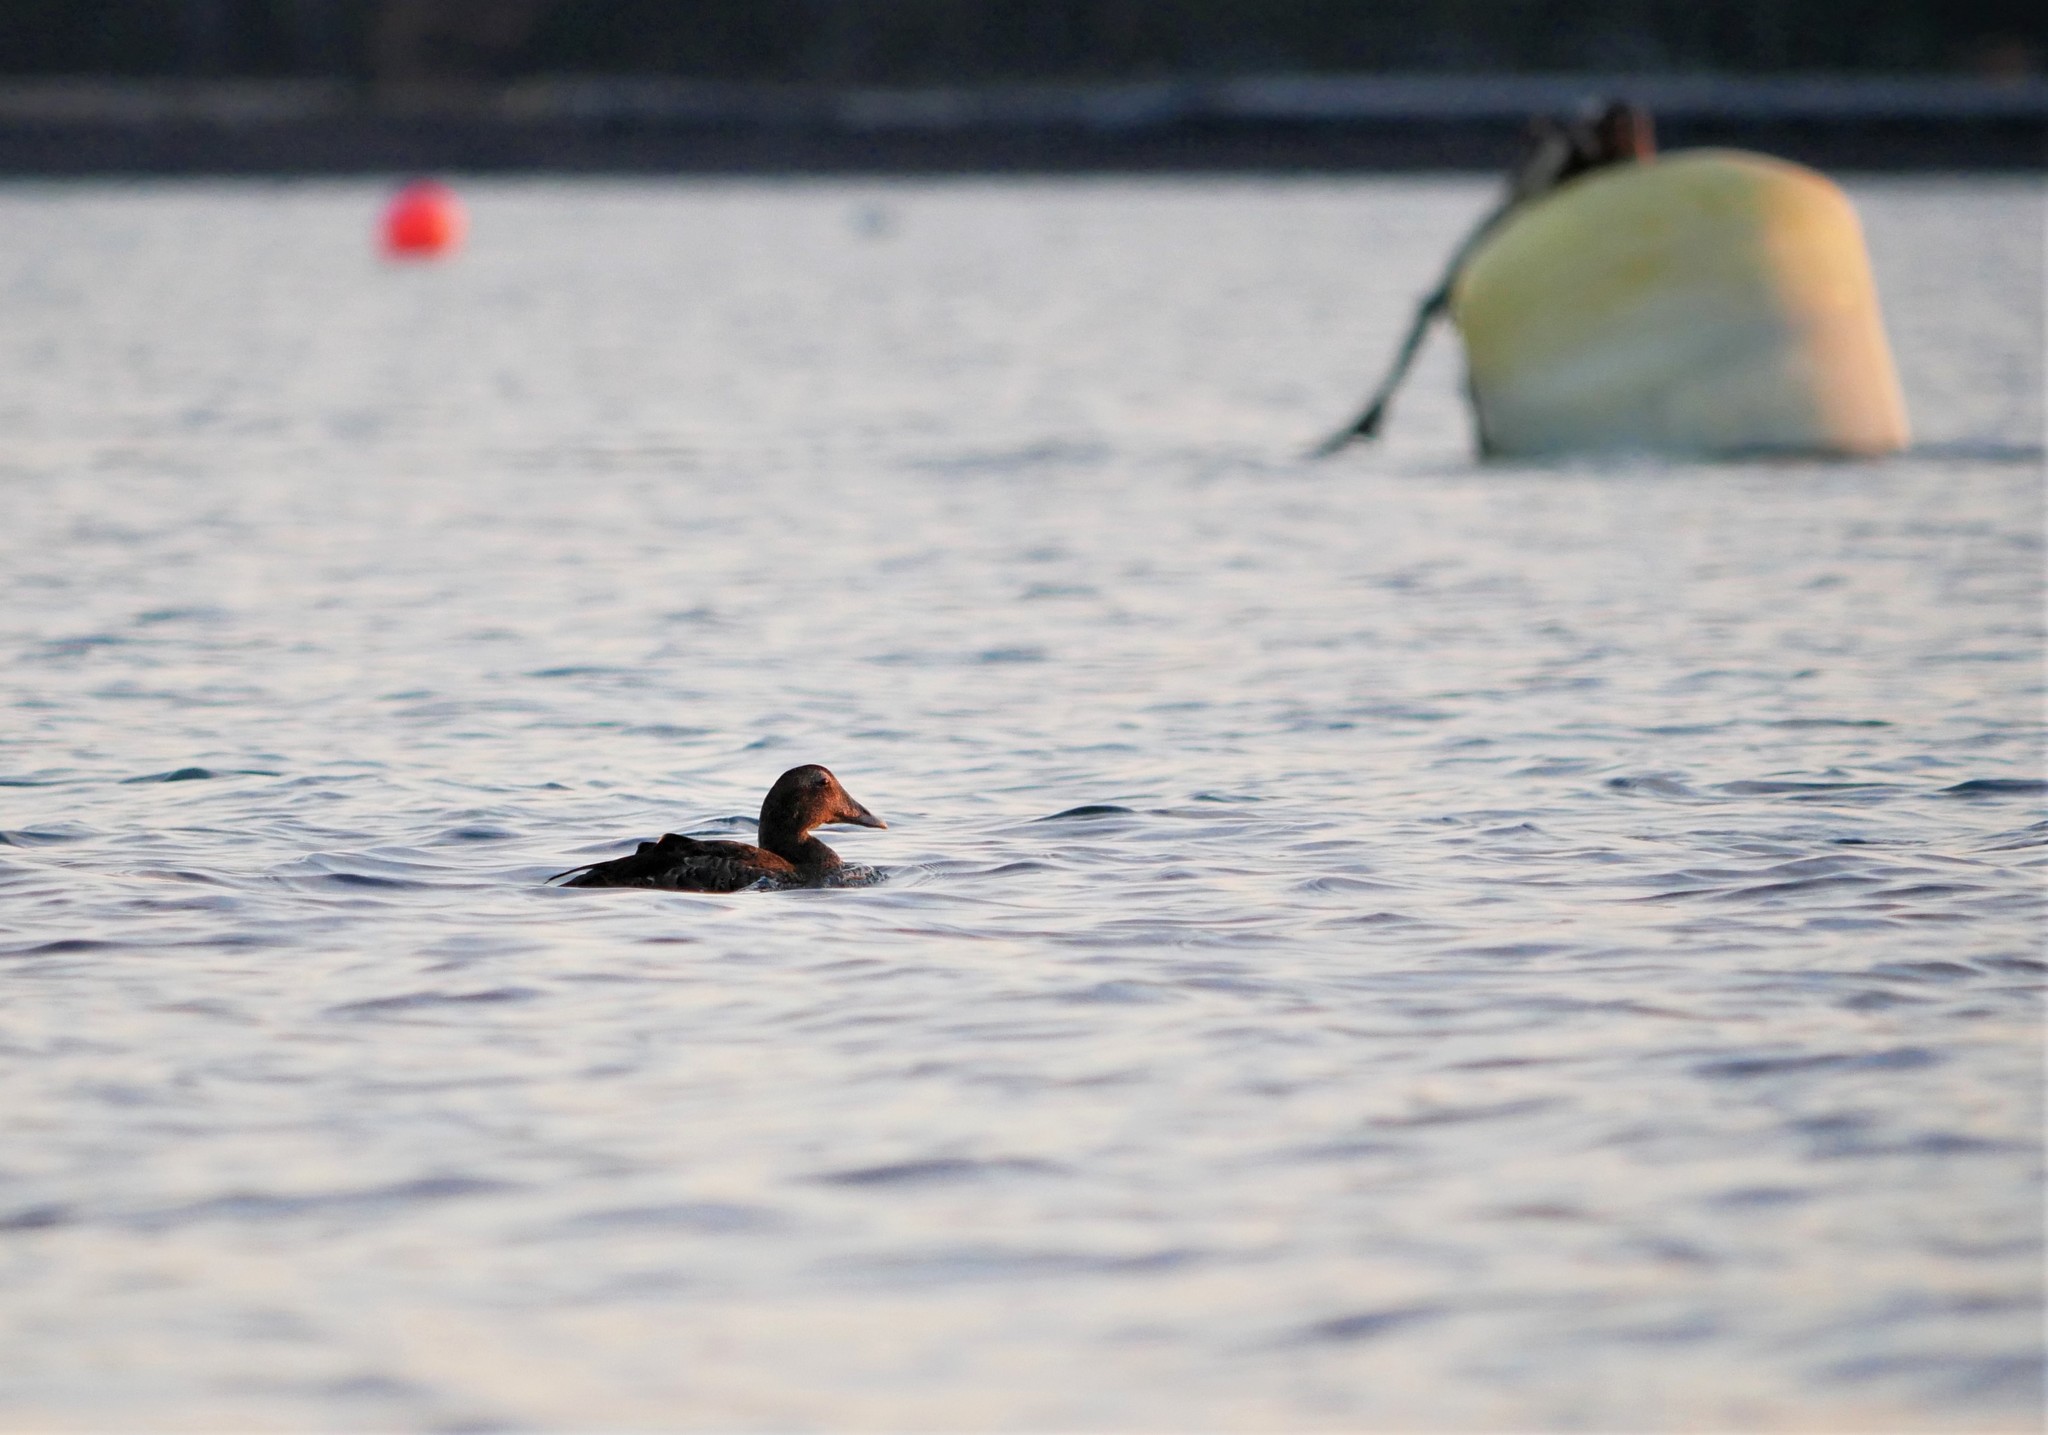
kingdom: Animalia
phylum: Chordata
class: Aves
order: Anseriformes
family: Anatidae
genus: Somateria
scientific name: Somateria mollissima
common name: Common eider
